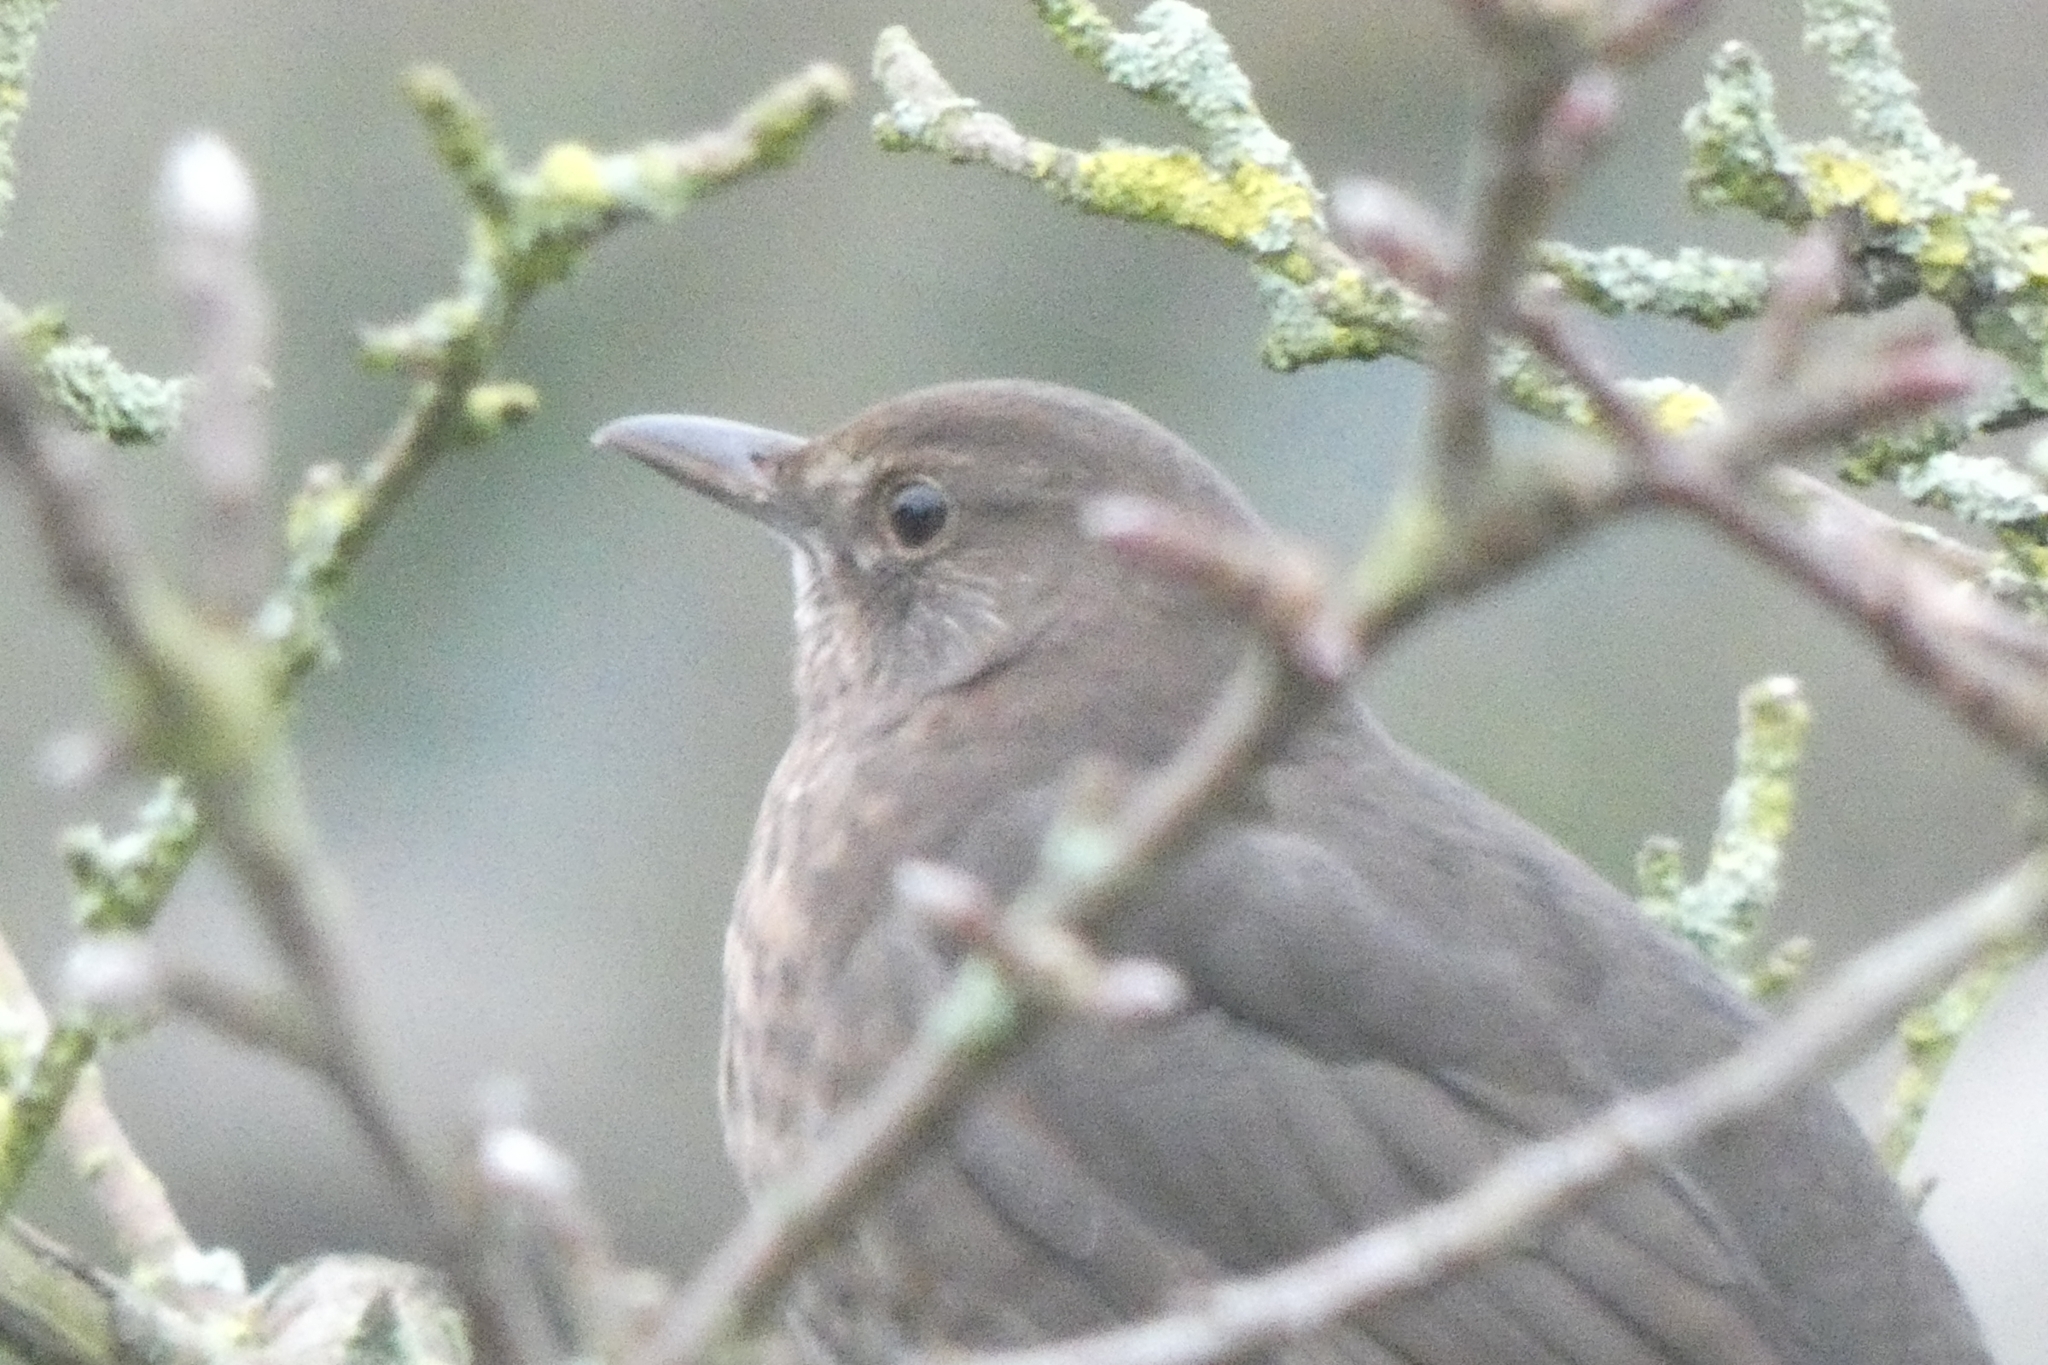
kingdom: Animalia
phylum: Chordata
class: Aves
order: Passeriformes
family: Turdidae
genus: Turdus
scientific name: Turdus merula
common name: Common blackbird
